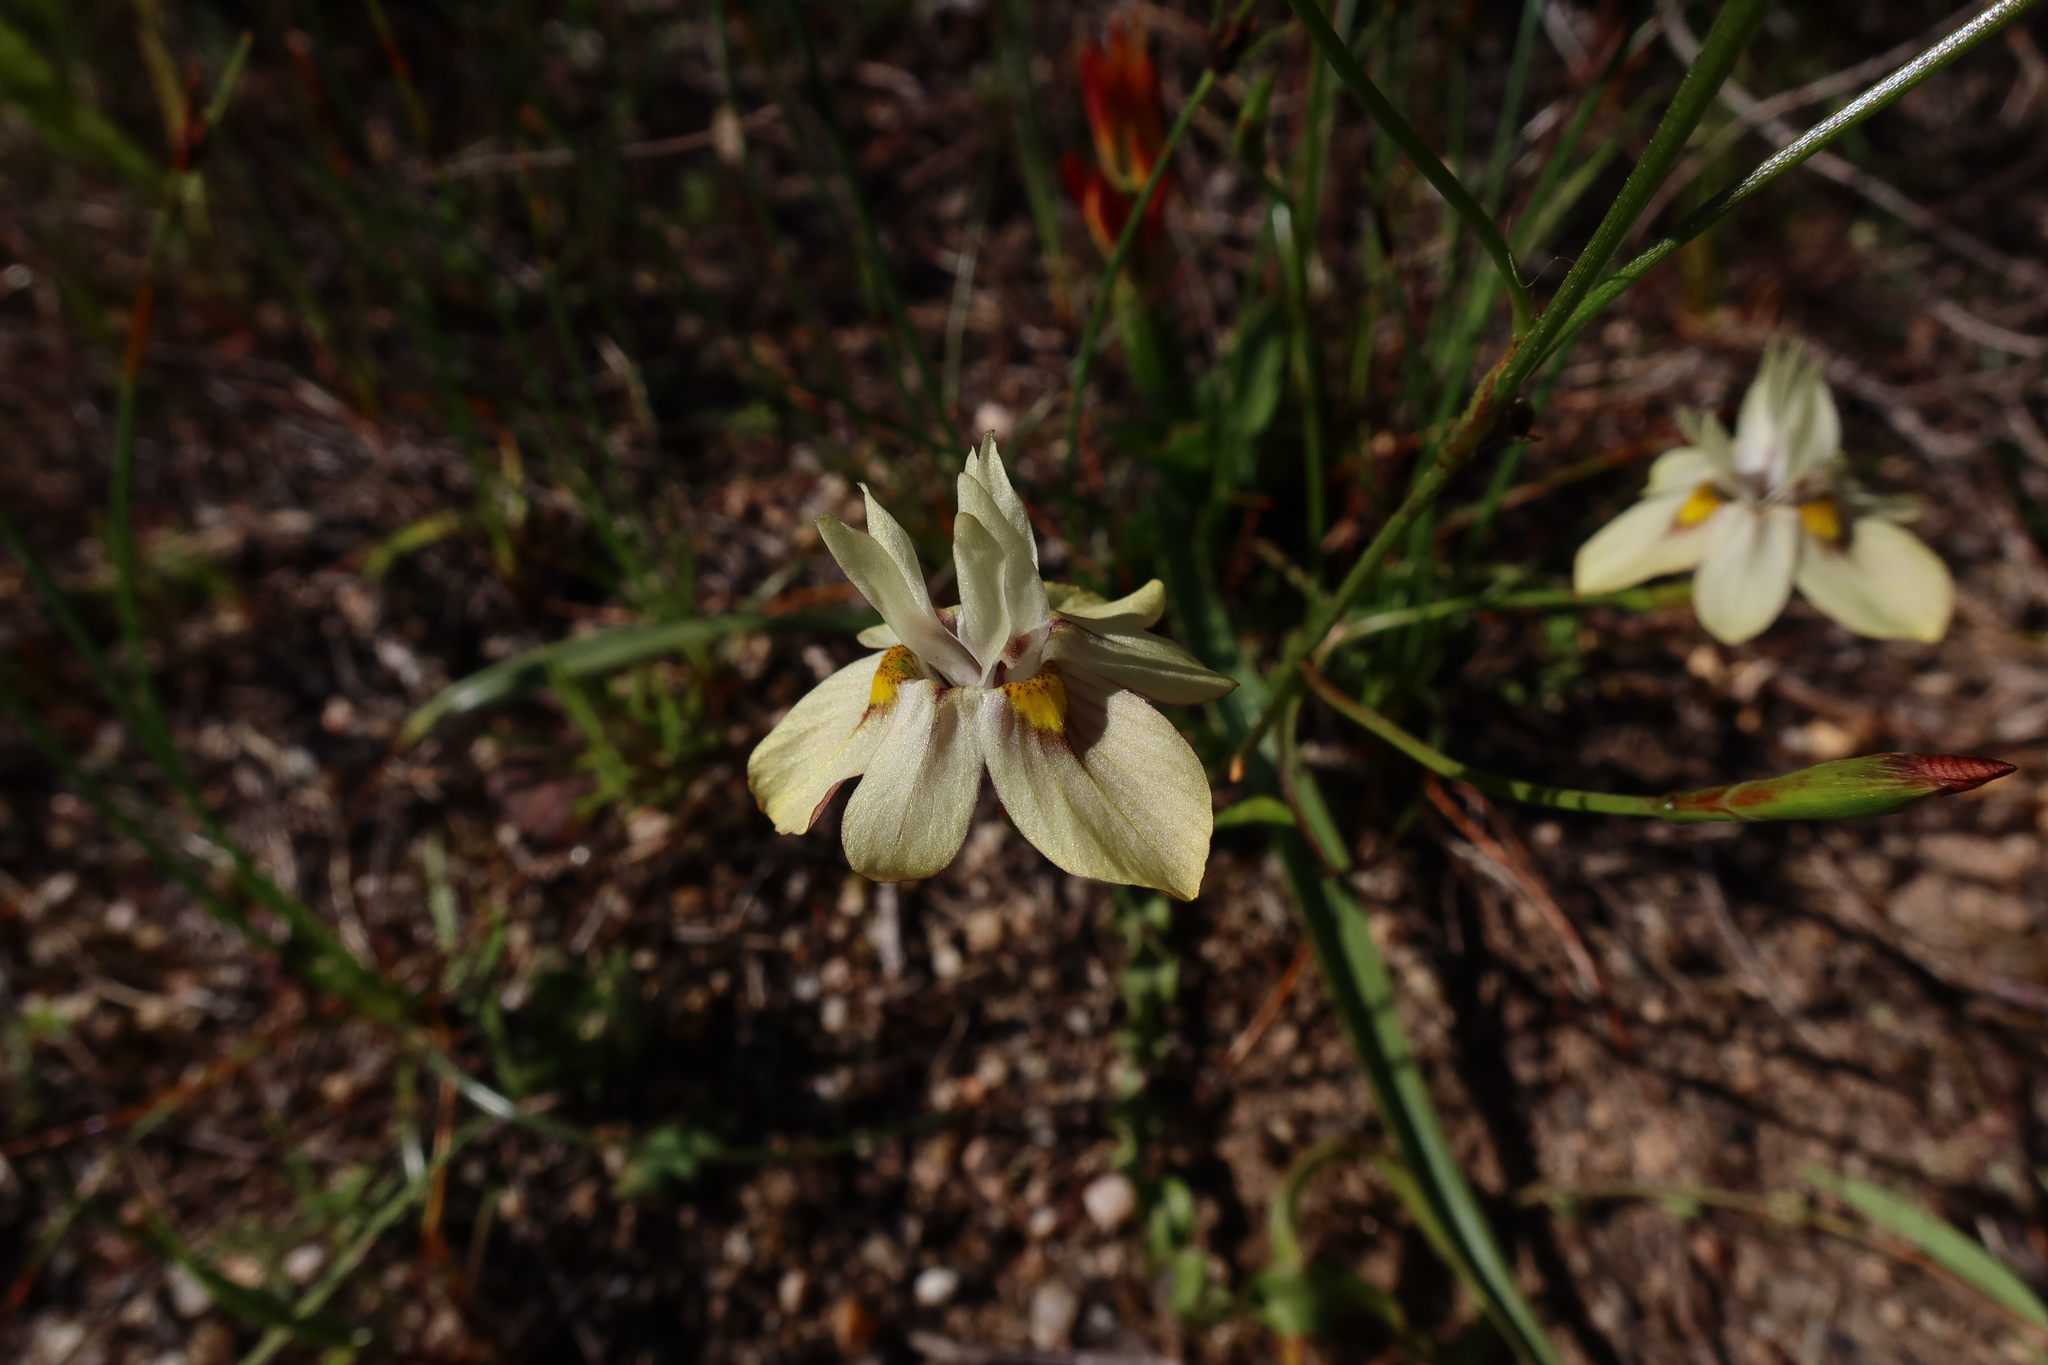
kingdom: Plantae
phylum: Tracheophyta
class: Liliopsida
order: Asparagales
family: Iridaceae
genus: Moraea
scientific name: Moraea gawleri
